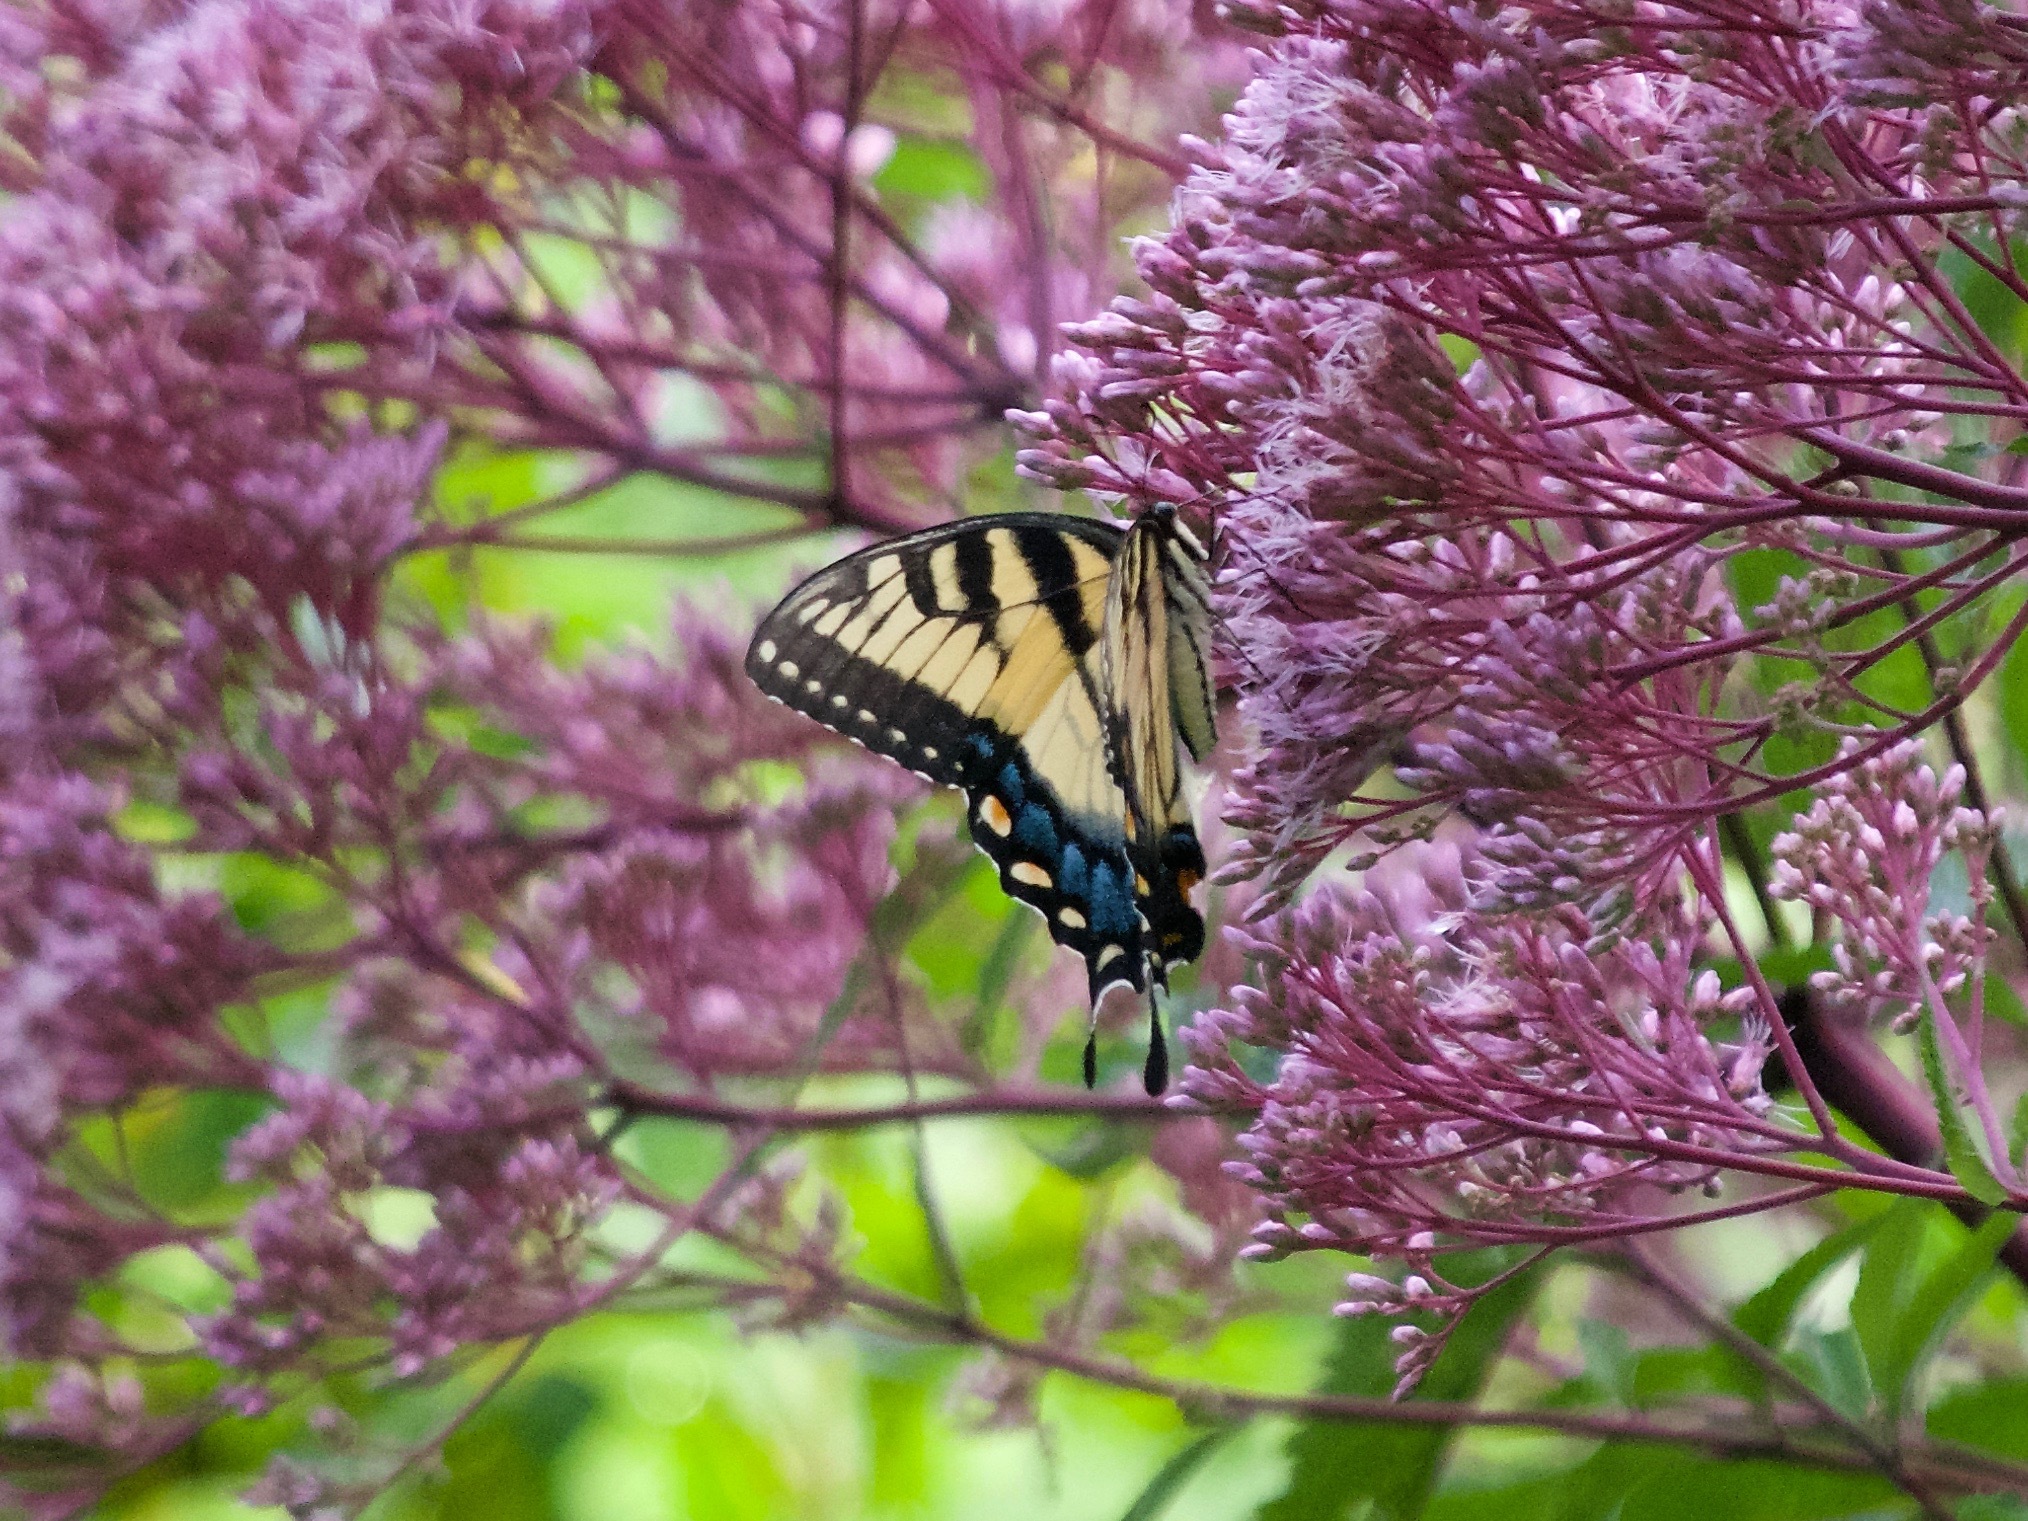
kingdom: Animalia
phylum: Arthropoda
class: Insecta
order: Lepidoptera
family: Papilionidae
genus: Papilio
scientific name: Papilio glaucus
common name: Tiger swallowtail
